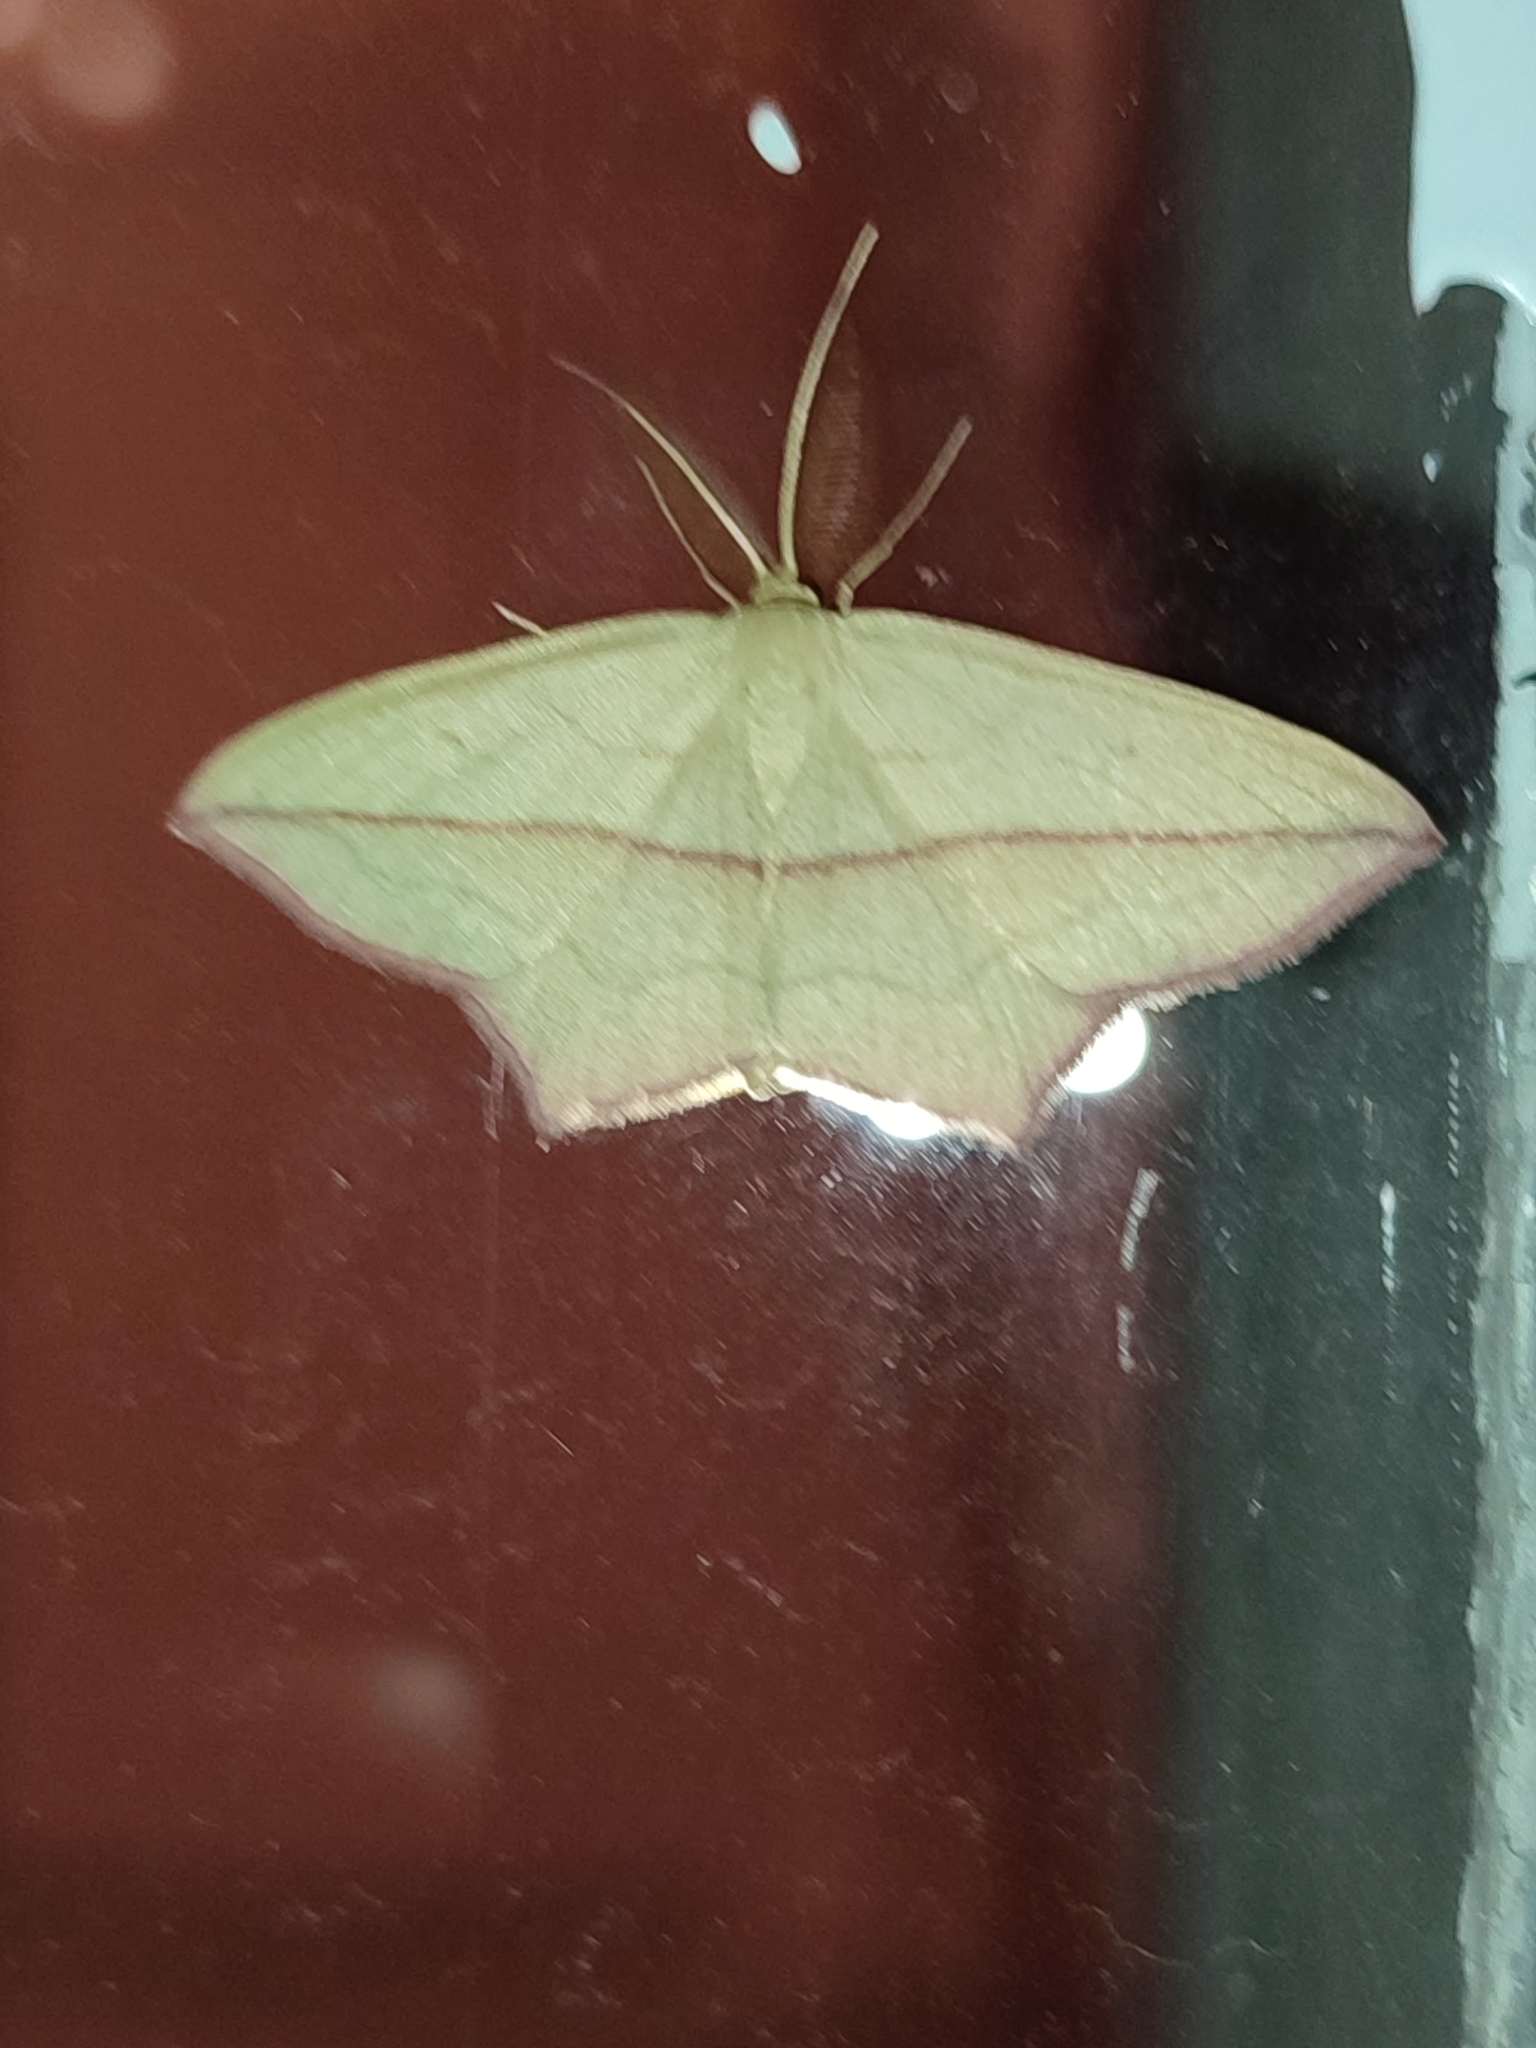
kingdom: Animalia
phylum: Arthropoda
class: Insecta
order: Lepidoptera
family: Geometridae
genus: Timandra
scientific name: Timandra comae
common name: Blood-vein
